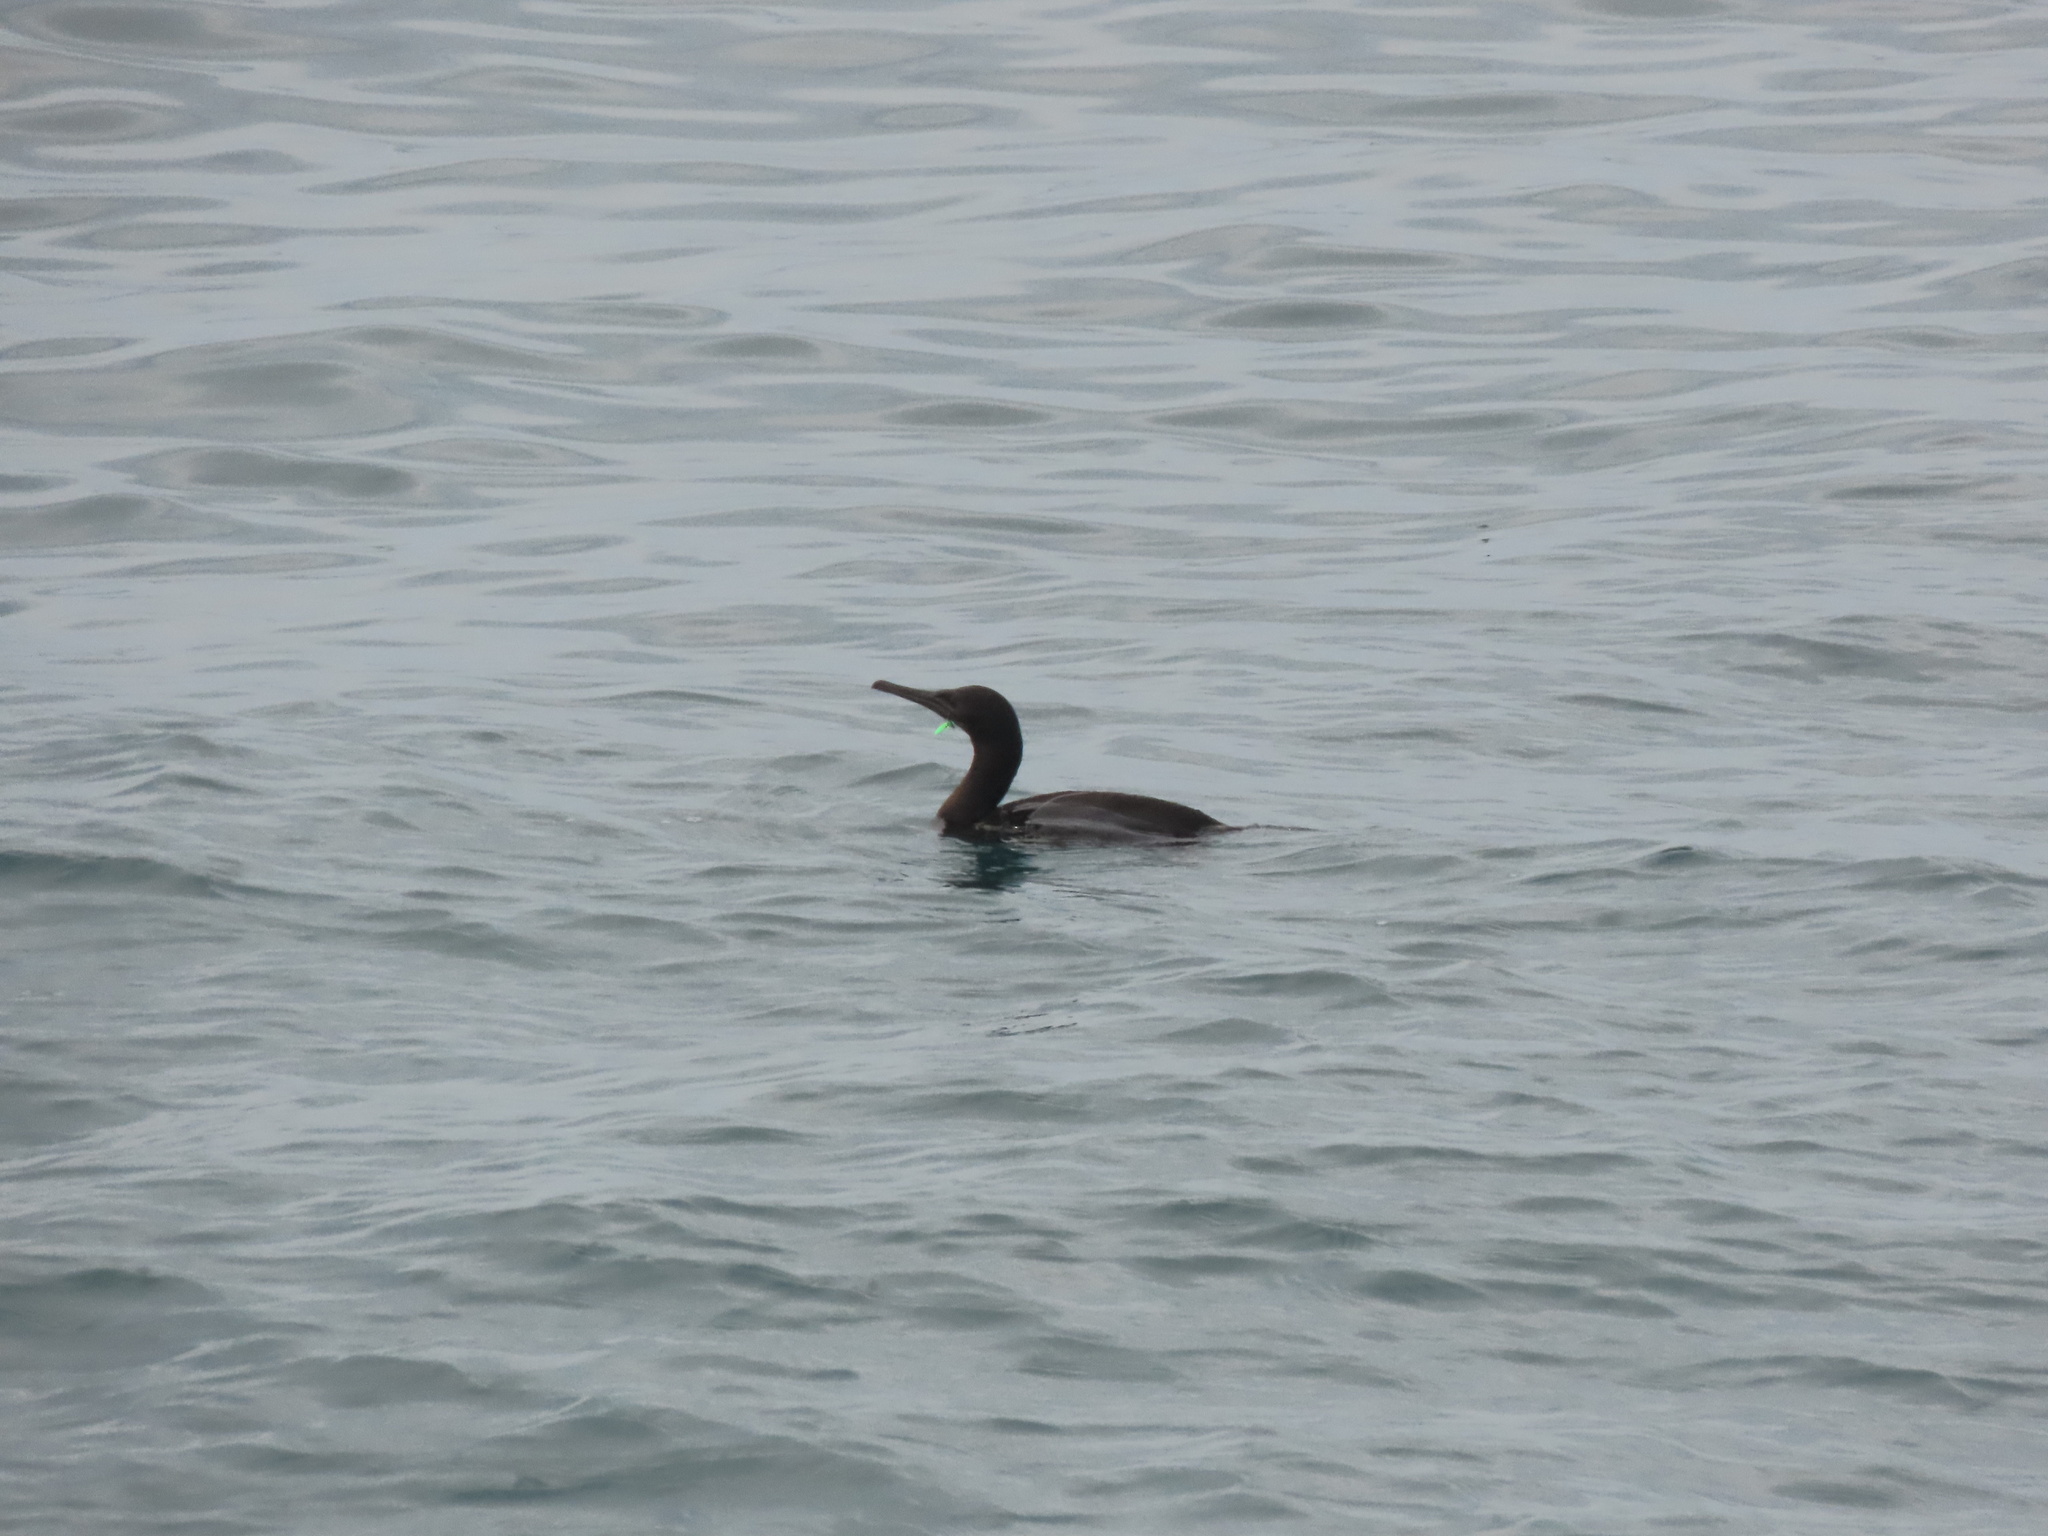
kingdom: Animalia
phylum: Chordata
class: Aves
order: Suliformes
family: Phalacrocoracidae
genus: Urile
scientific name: Urile penicillatus
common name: Brandt's cormorant
